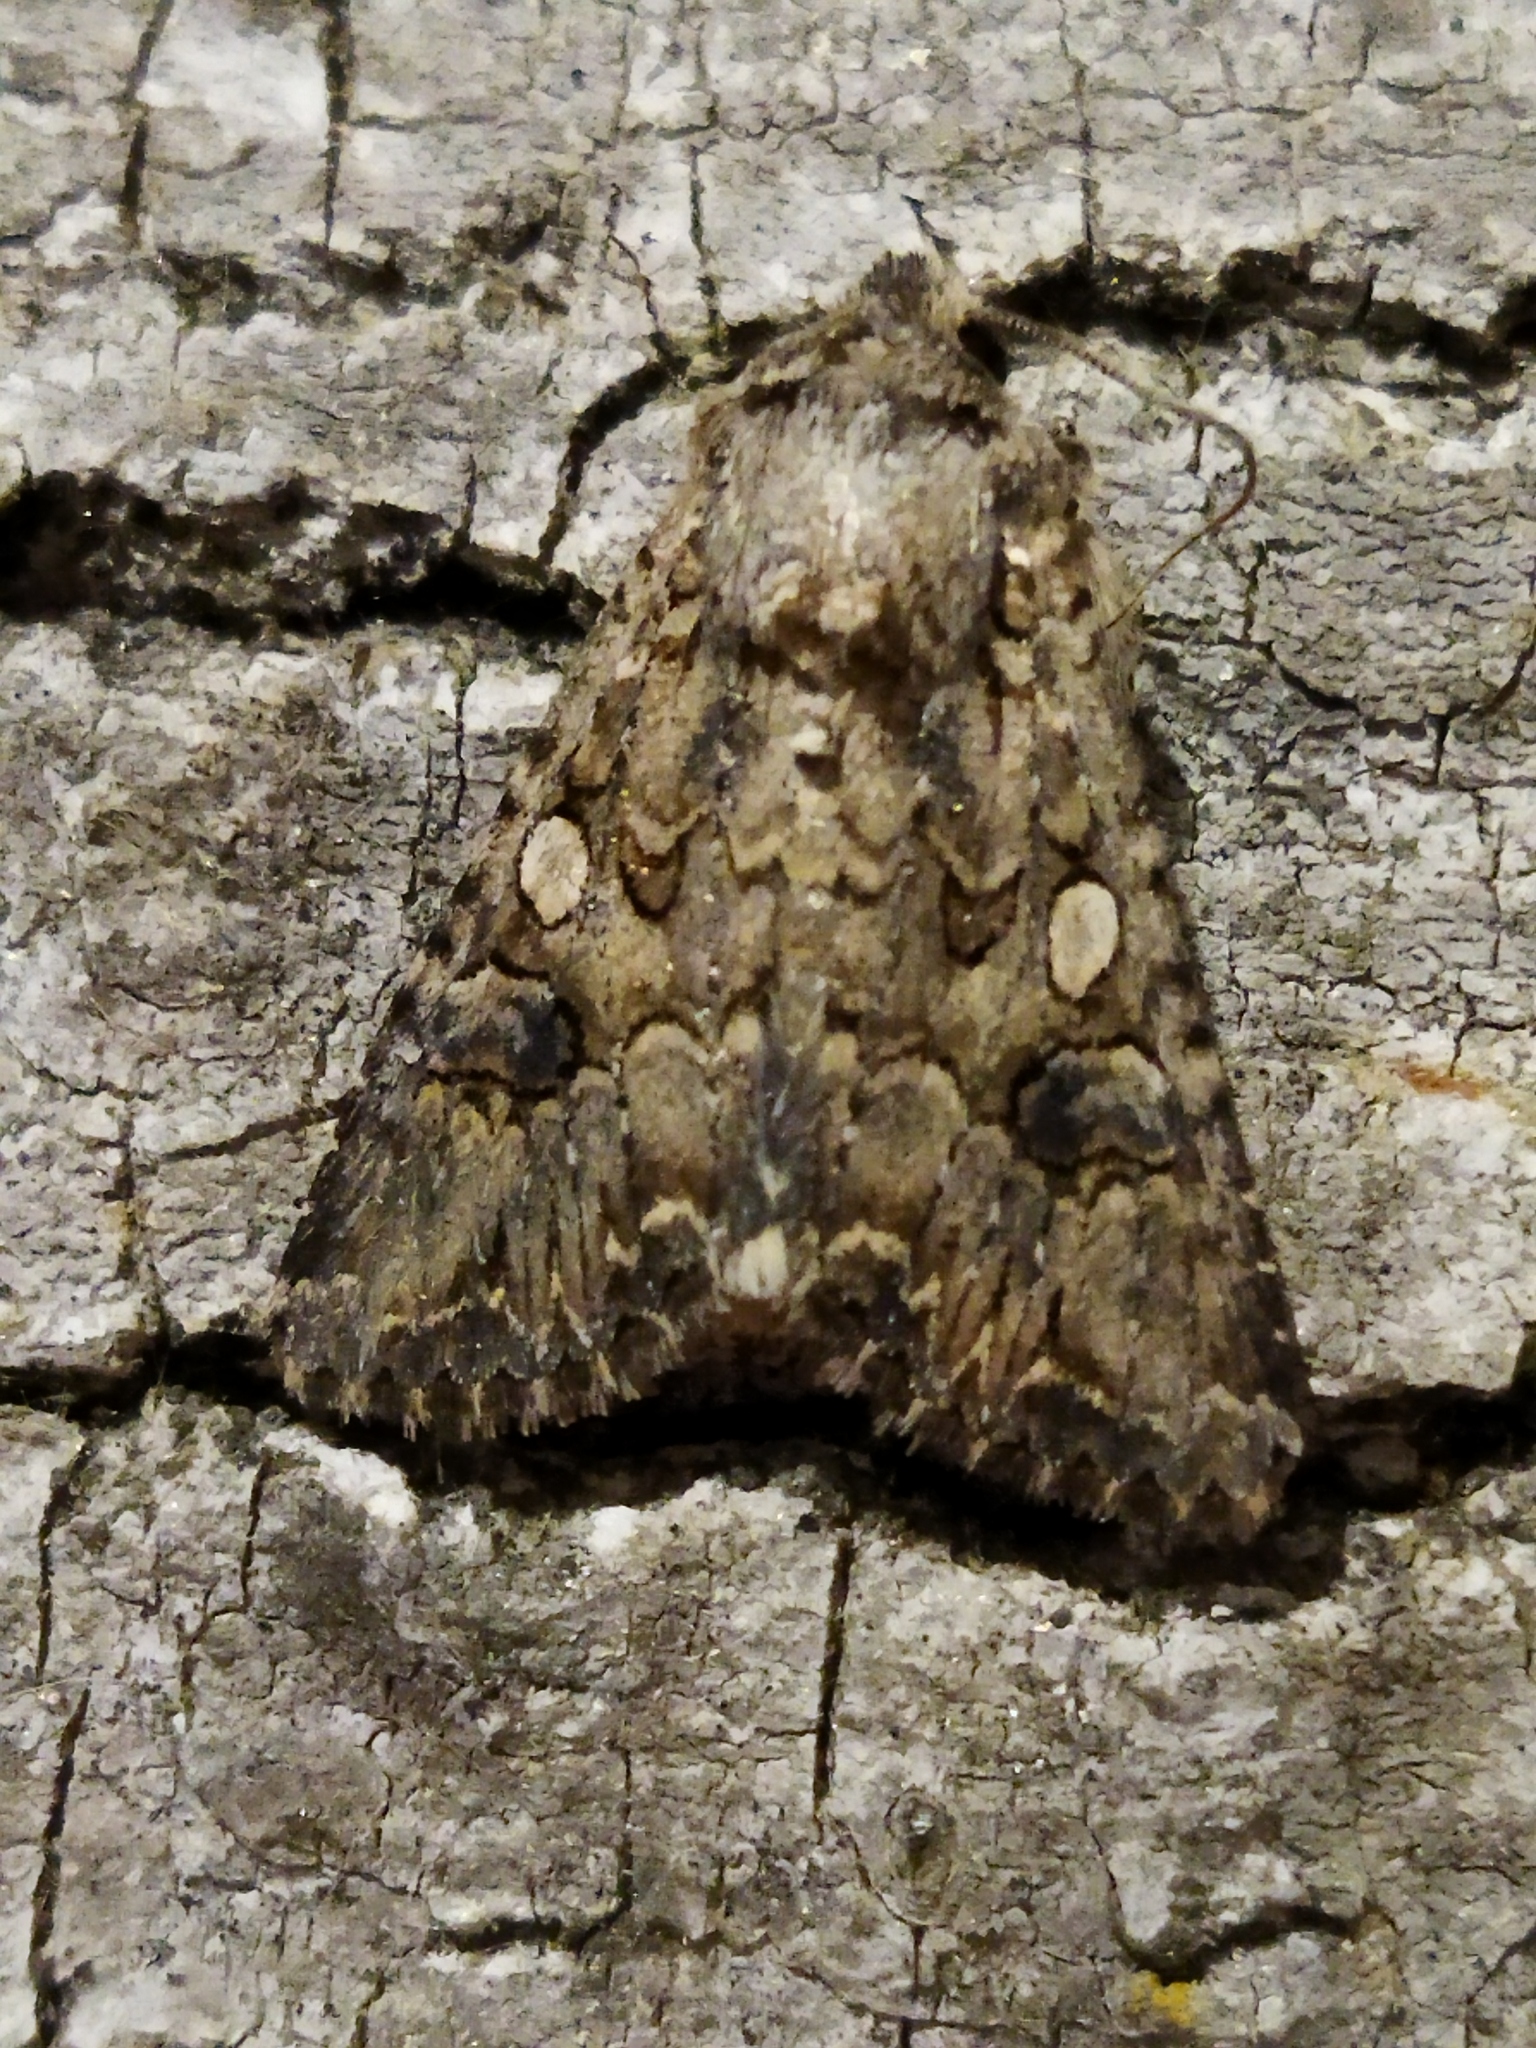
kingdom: Animalia
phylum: Arthropoda
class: Insecta
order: Lepidoptera
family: Noctuidae
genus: Anarta
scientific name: Anarta trifolii
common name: Clover cutworm moth
